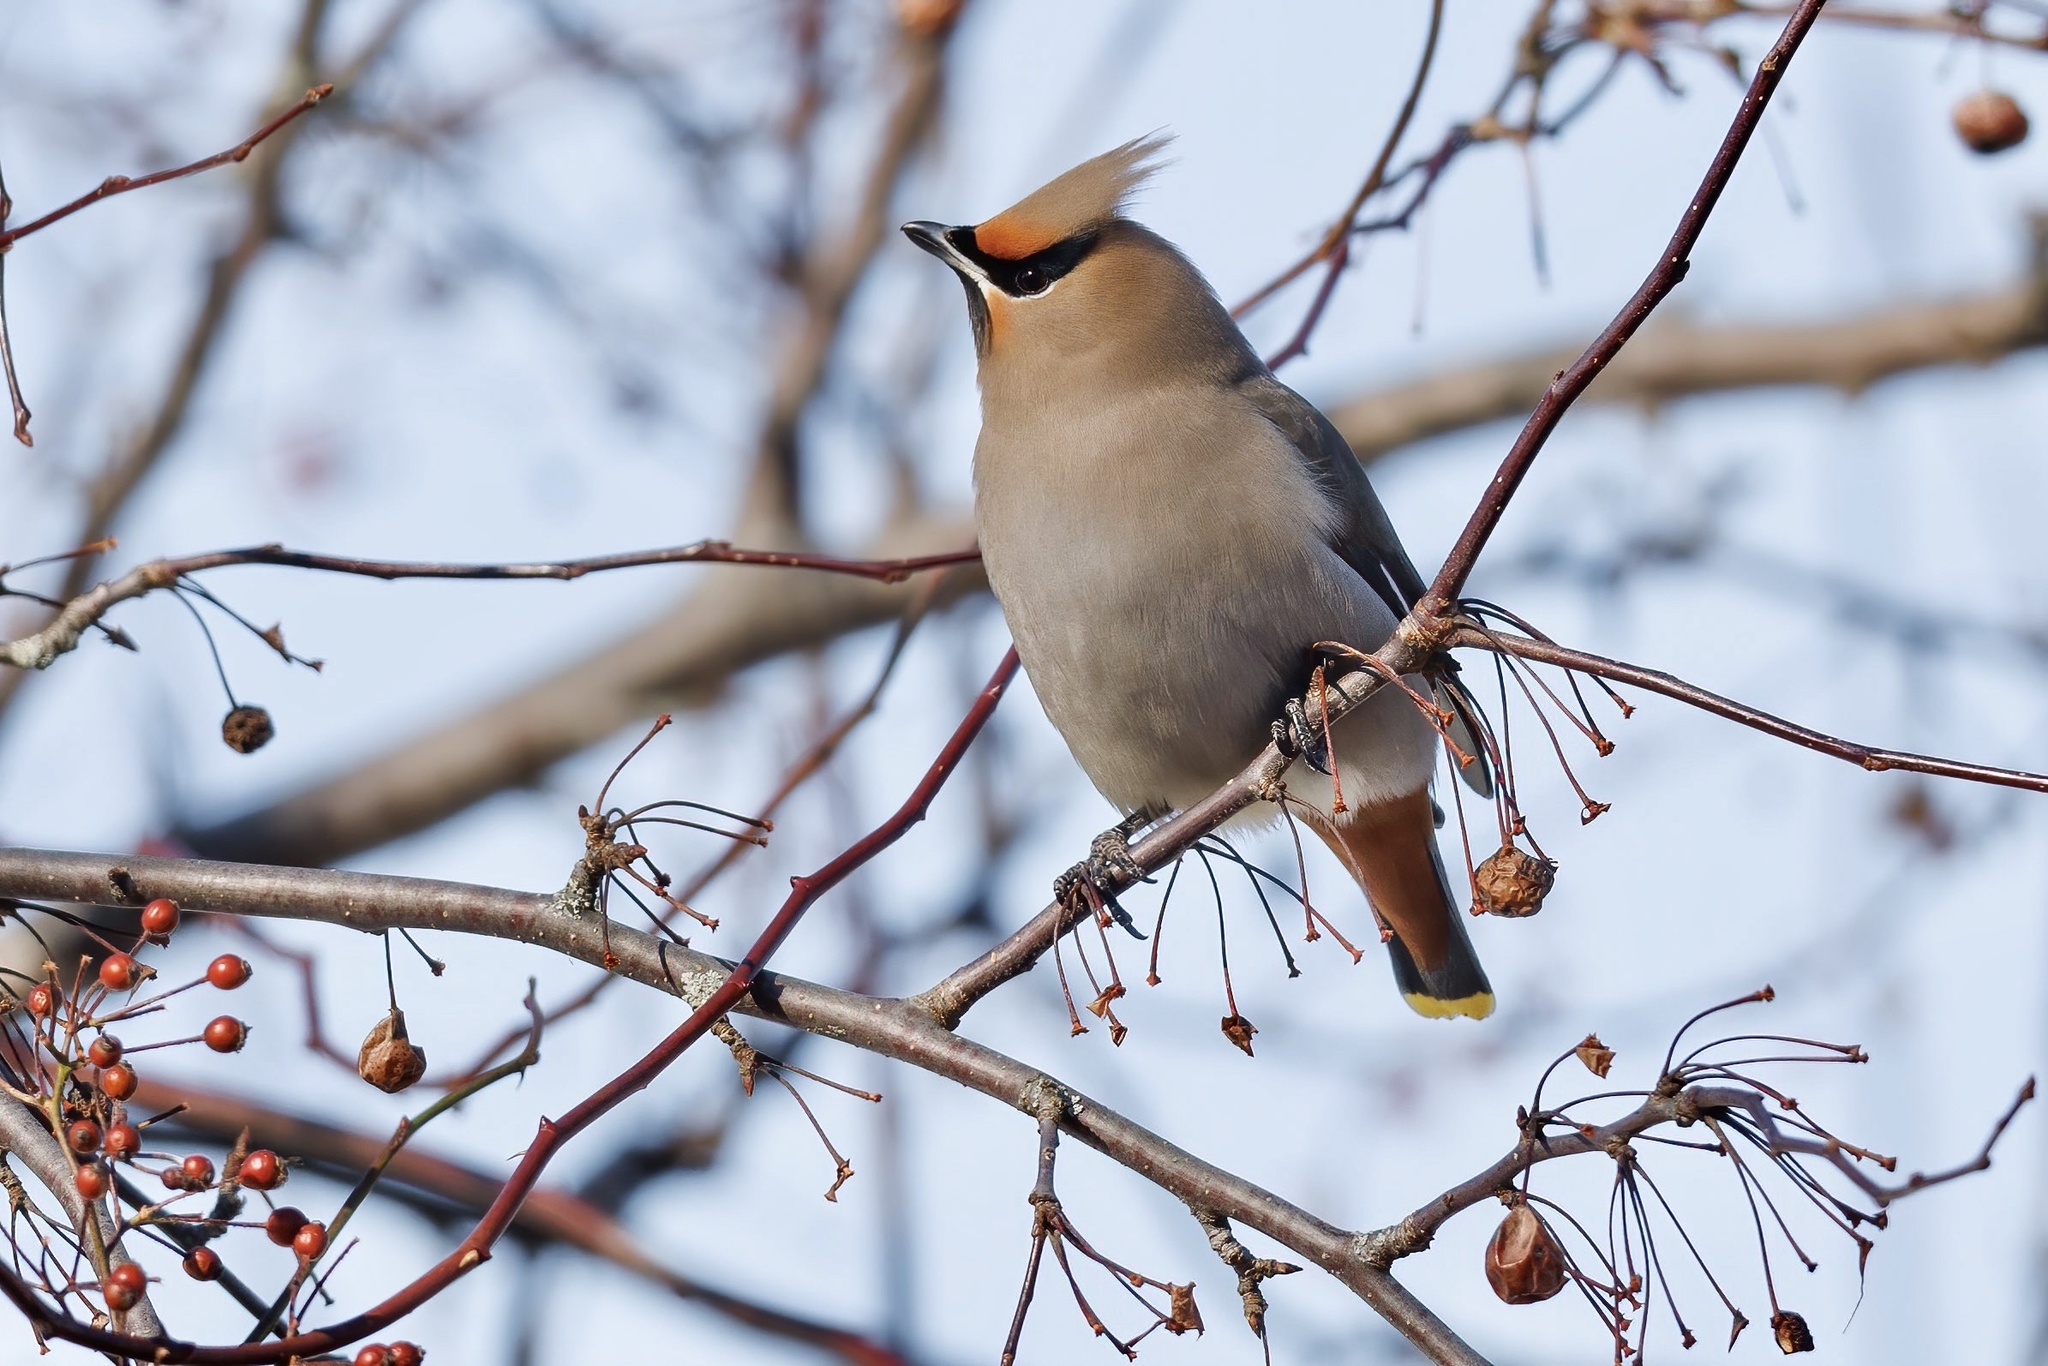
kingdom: Animalia
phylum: Chordata
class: Aves
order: Passeriformes
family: Bombycillidae
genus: Bombycilla
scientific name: Bombycilla garrulus
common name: Bohemian waxwing
